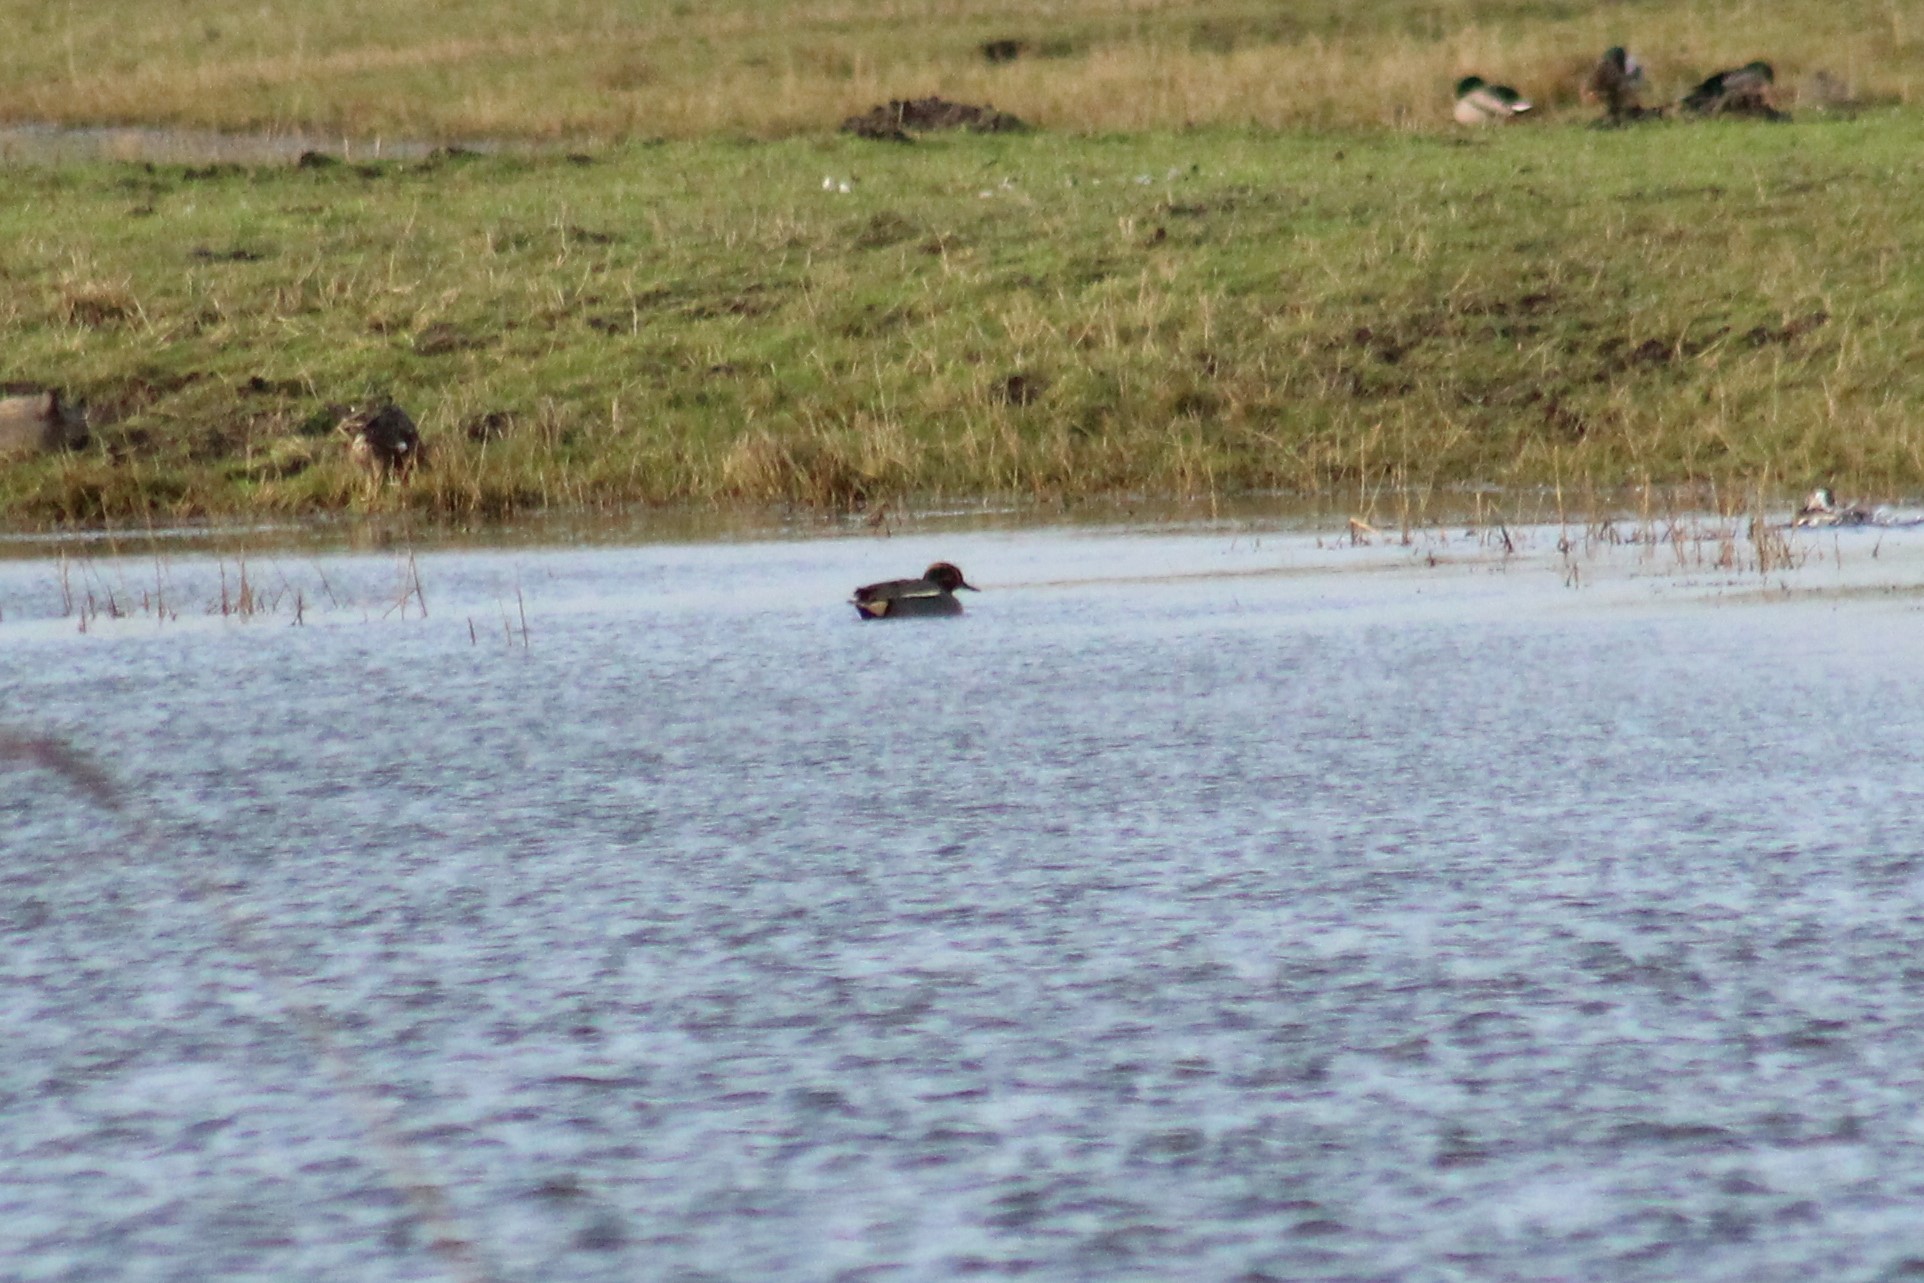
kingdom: Animalia
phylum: Chordata
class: Aves
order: Anseriformes
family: Anatidae
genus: Anas
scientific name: Anas crecca
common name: Eurasian teal
